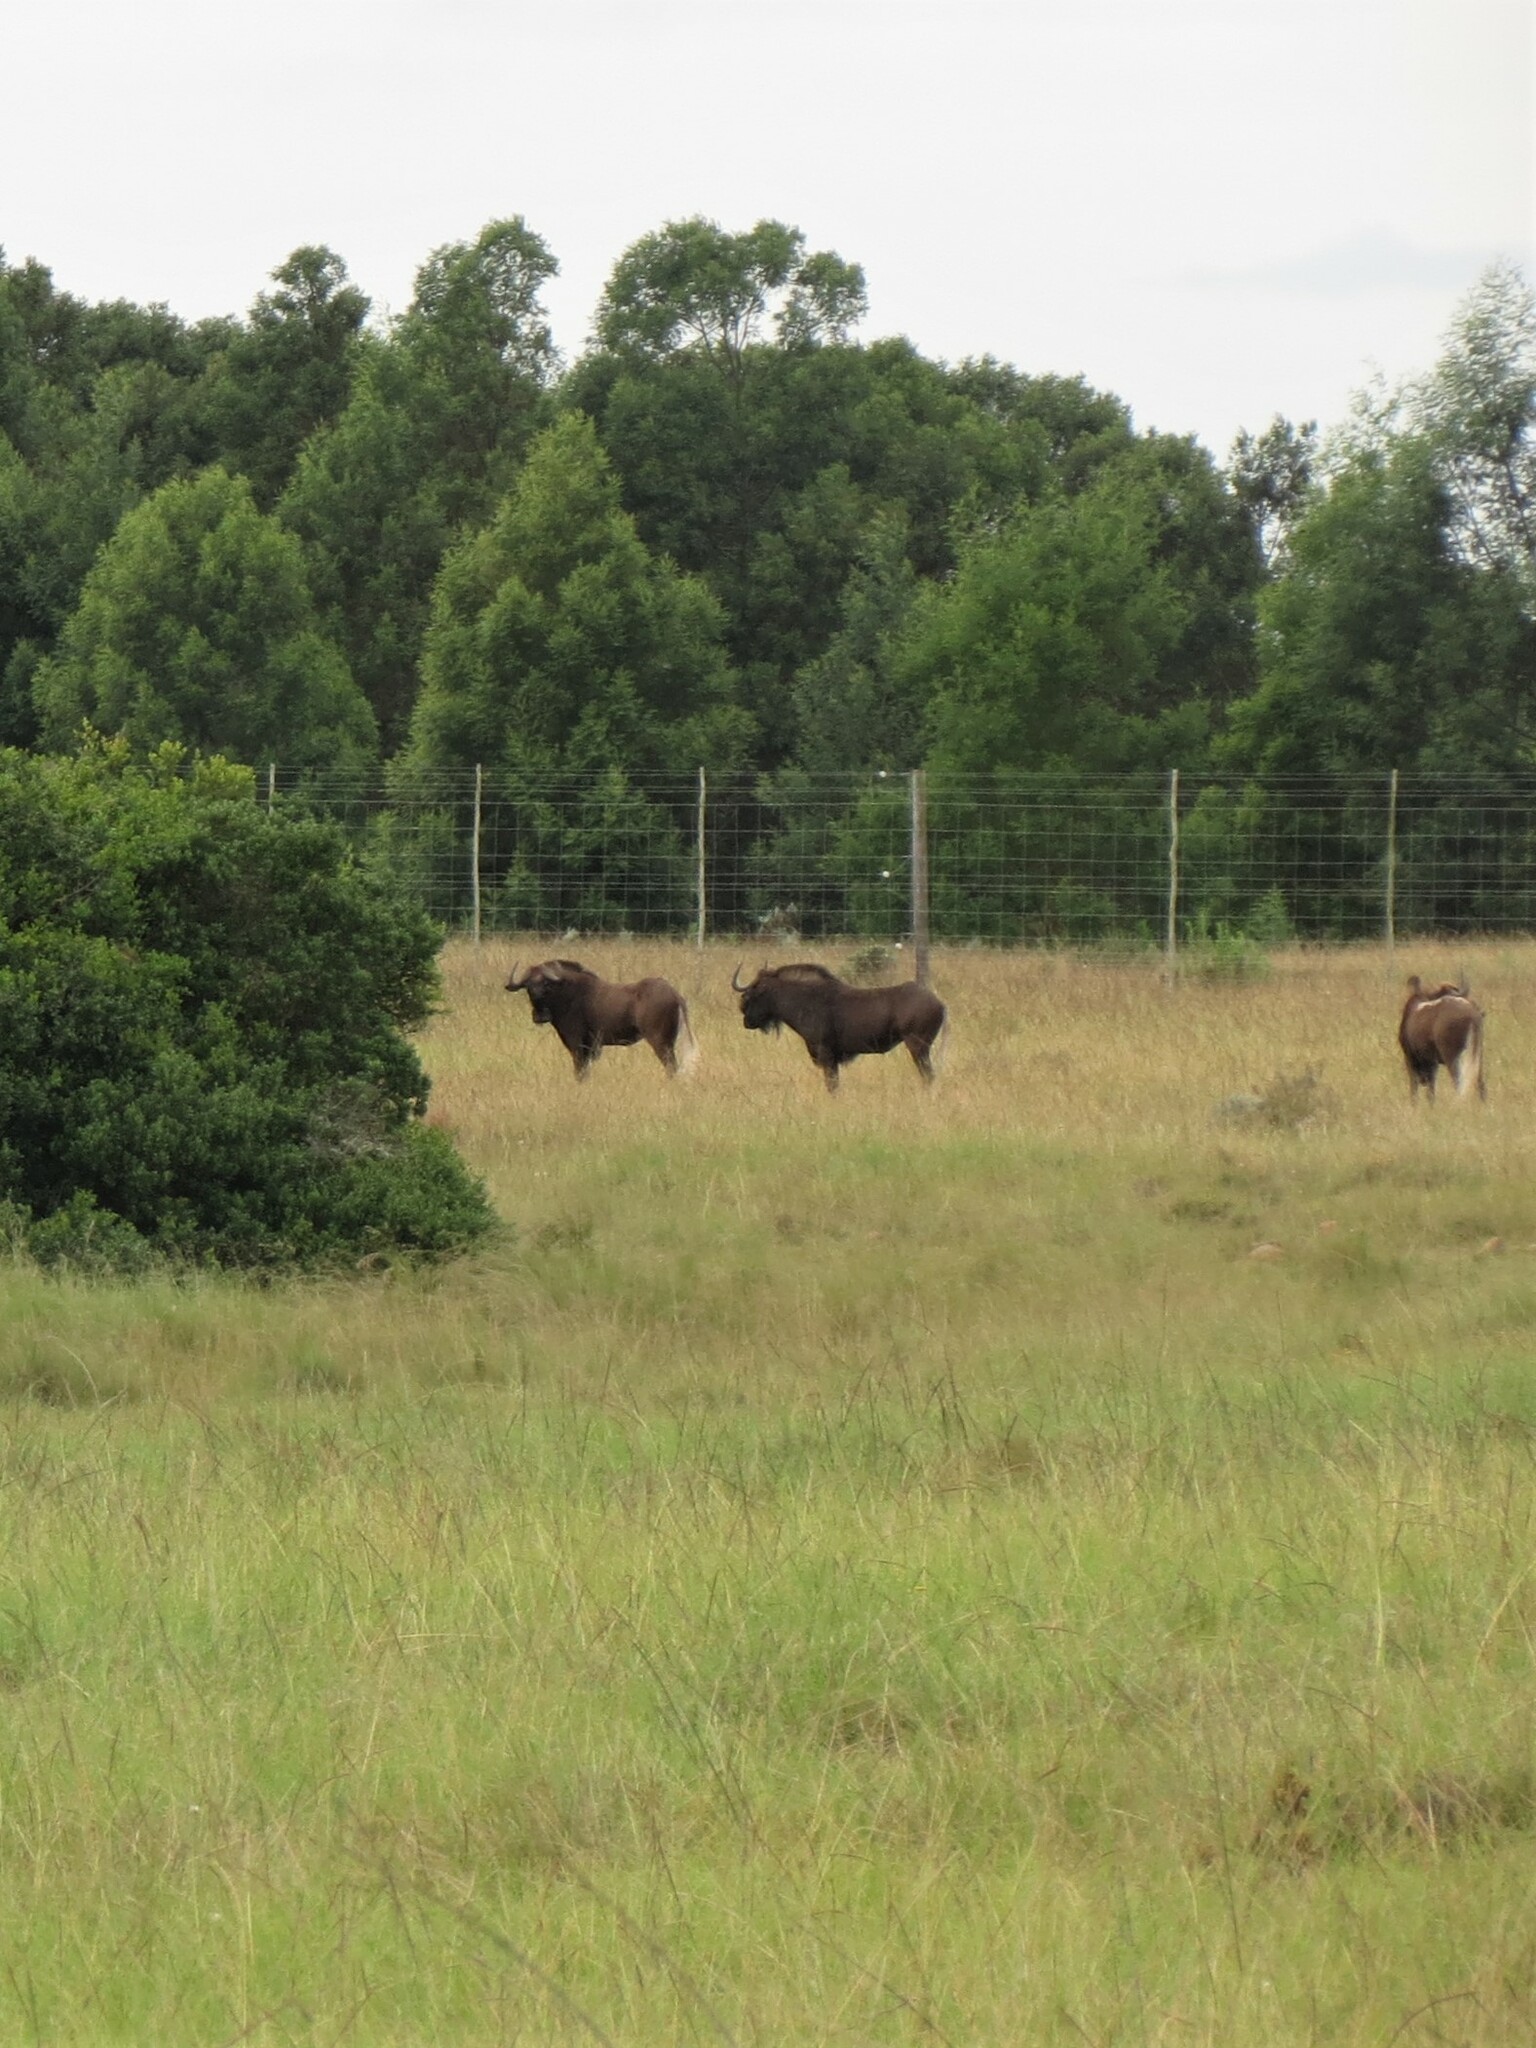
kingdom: Animalia
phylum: Chordata
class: Mammalia
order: Artiodactyla
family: Bovidae
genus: Connochaetes
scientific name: Connochaetes gnou
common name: Black wildebeest
